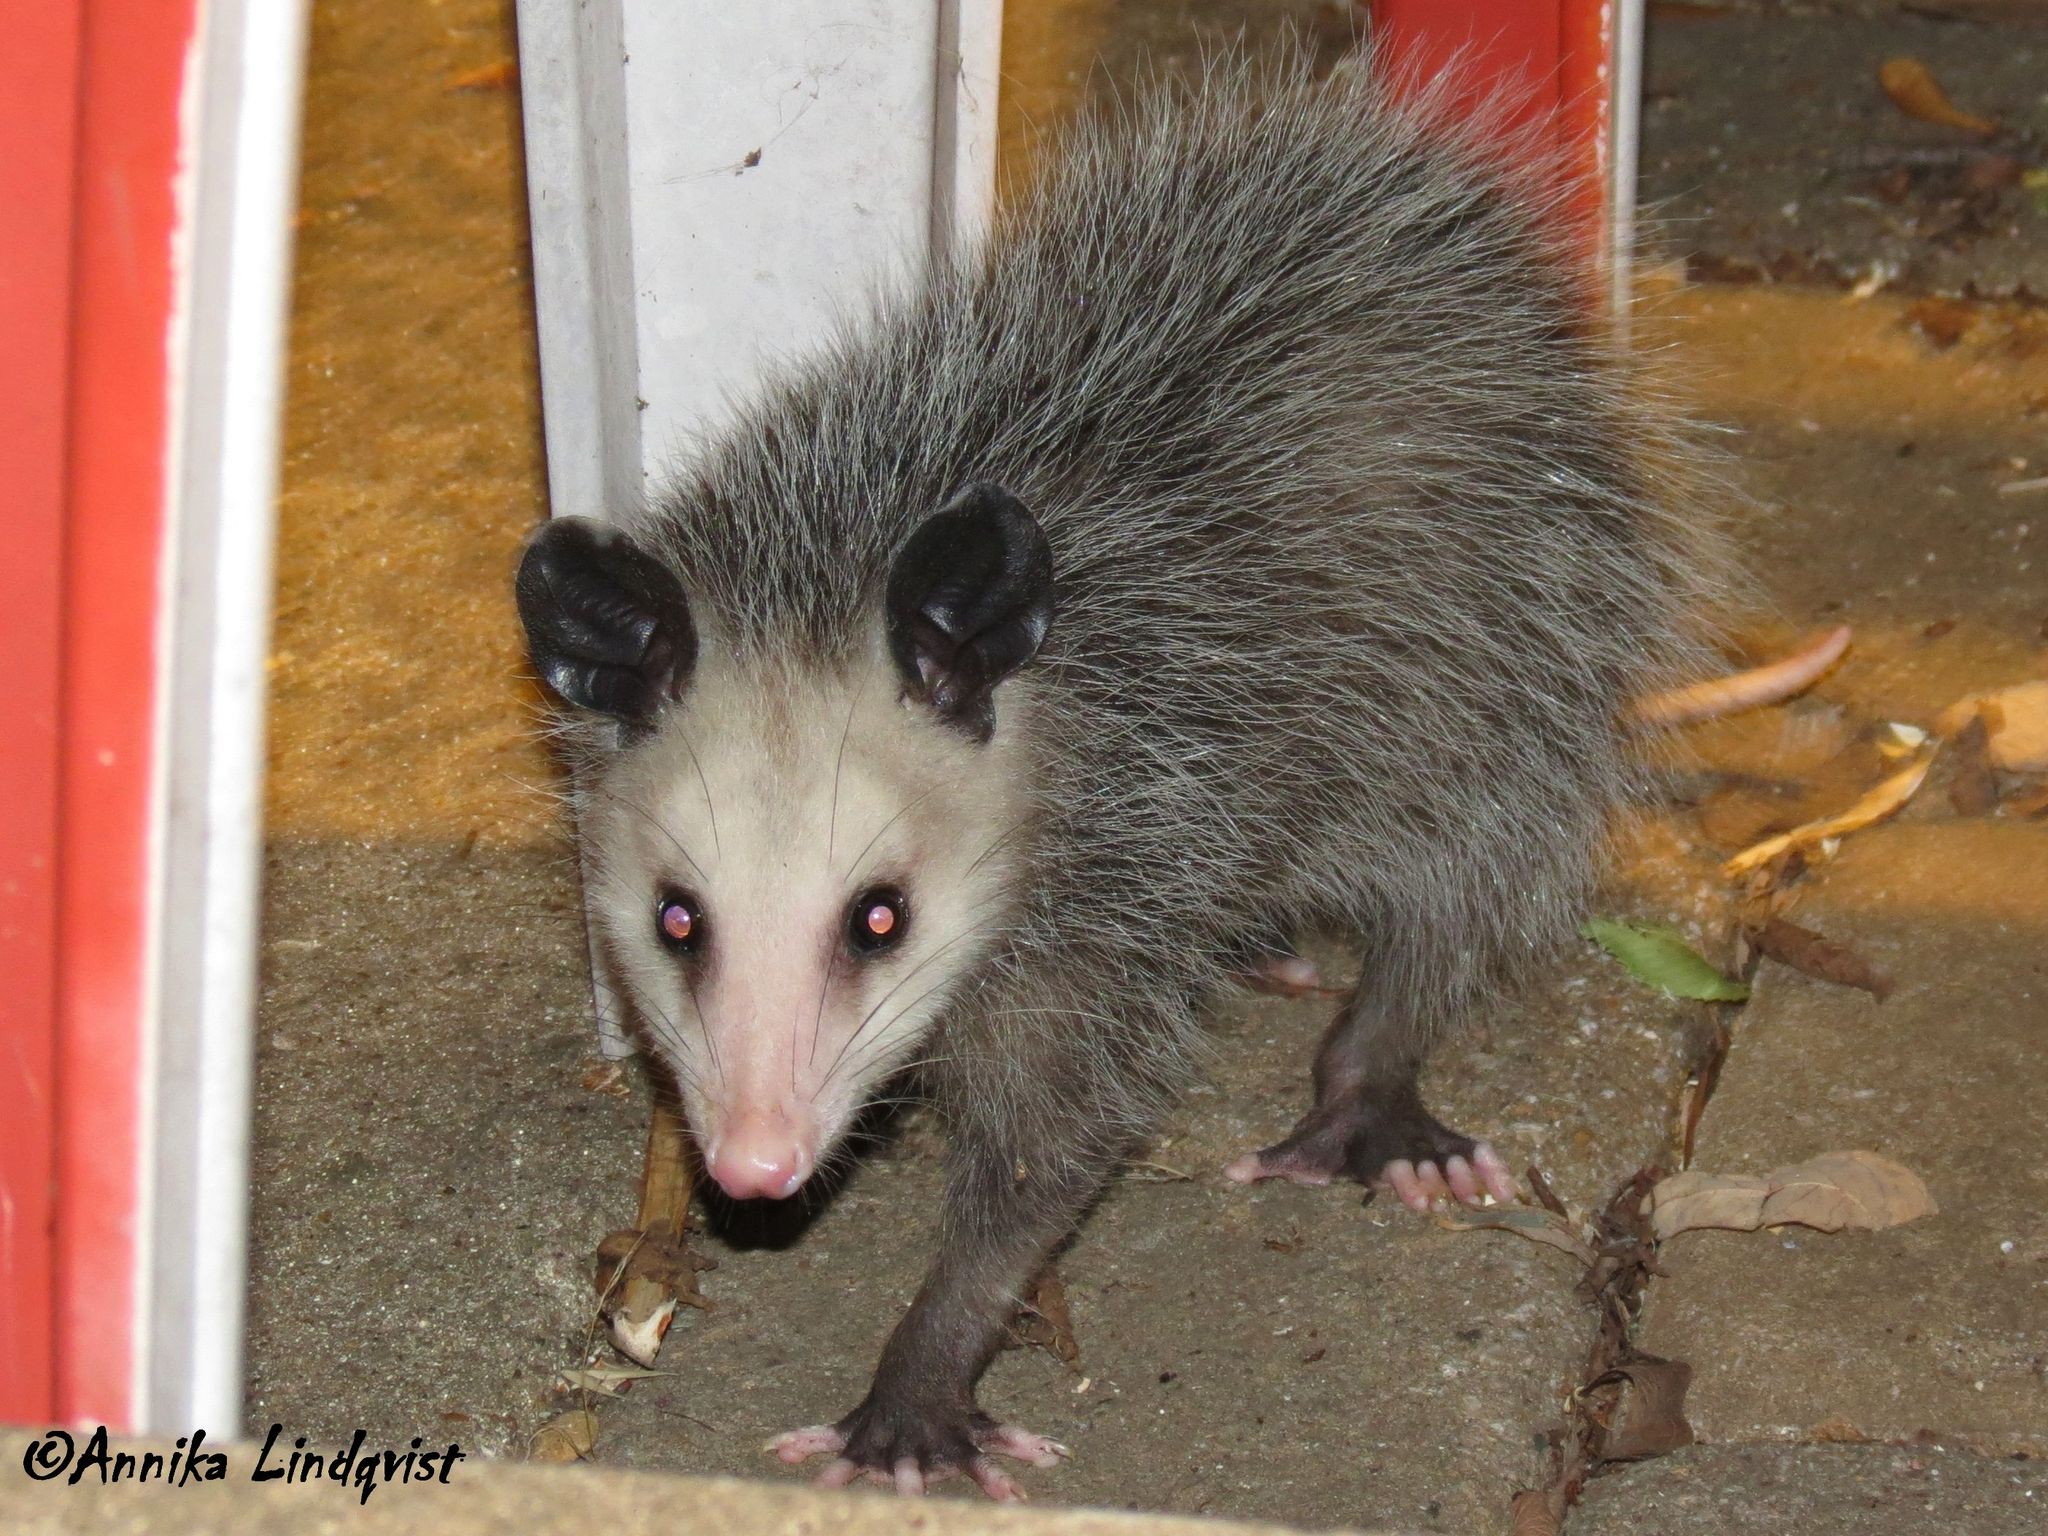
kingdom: Animalia
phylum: Chordata
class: Mammalia
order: Didelphimorphia
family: Didelphidae
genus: Didelphis
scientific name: Didelphis virginiana
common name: Virginia opossum
